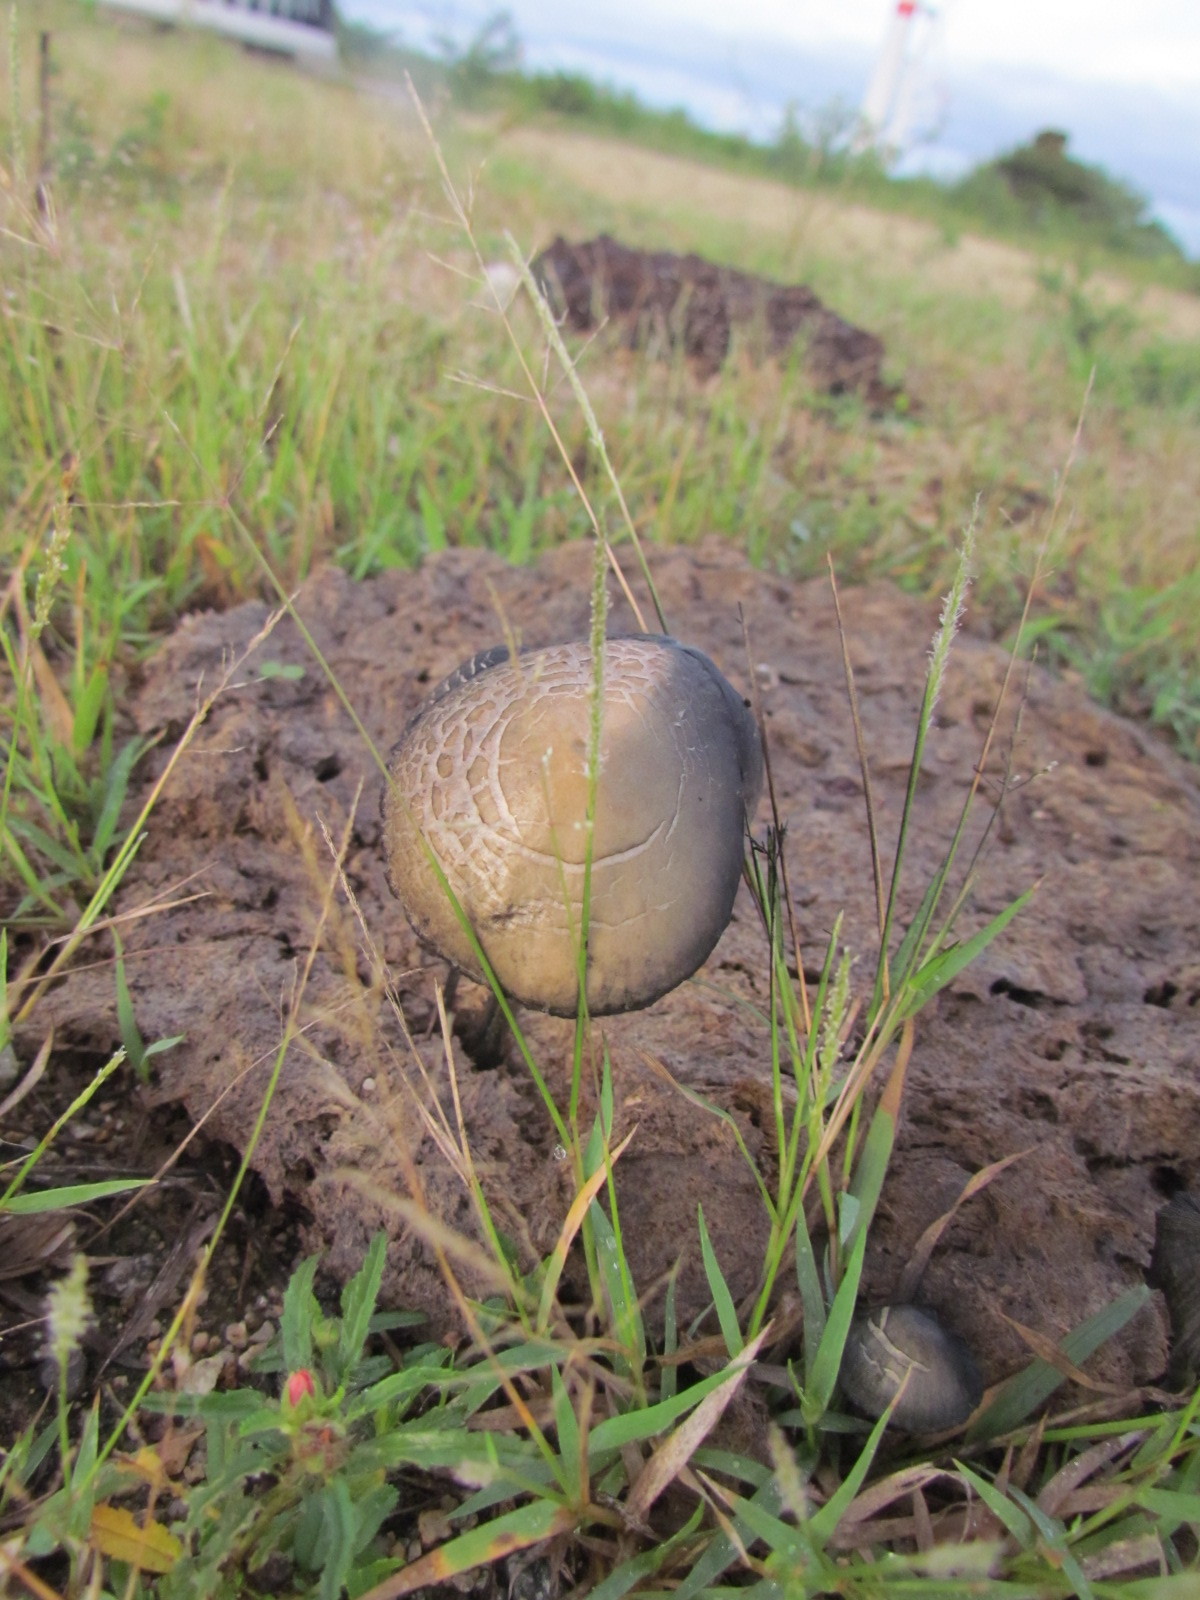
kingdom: Fungi
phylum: Basidiomycota
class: Agaricomycetes
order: Agaricales
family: Bolbitiaceae
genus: Panaeolus
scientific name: Panaeolus cyanescens
